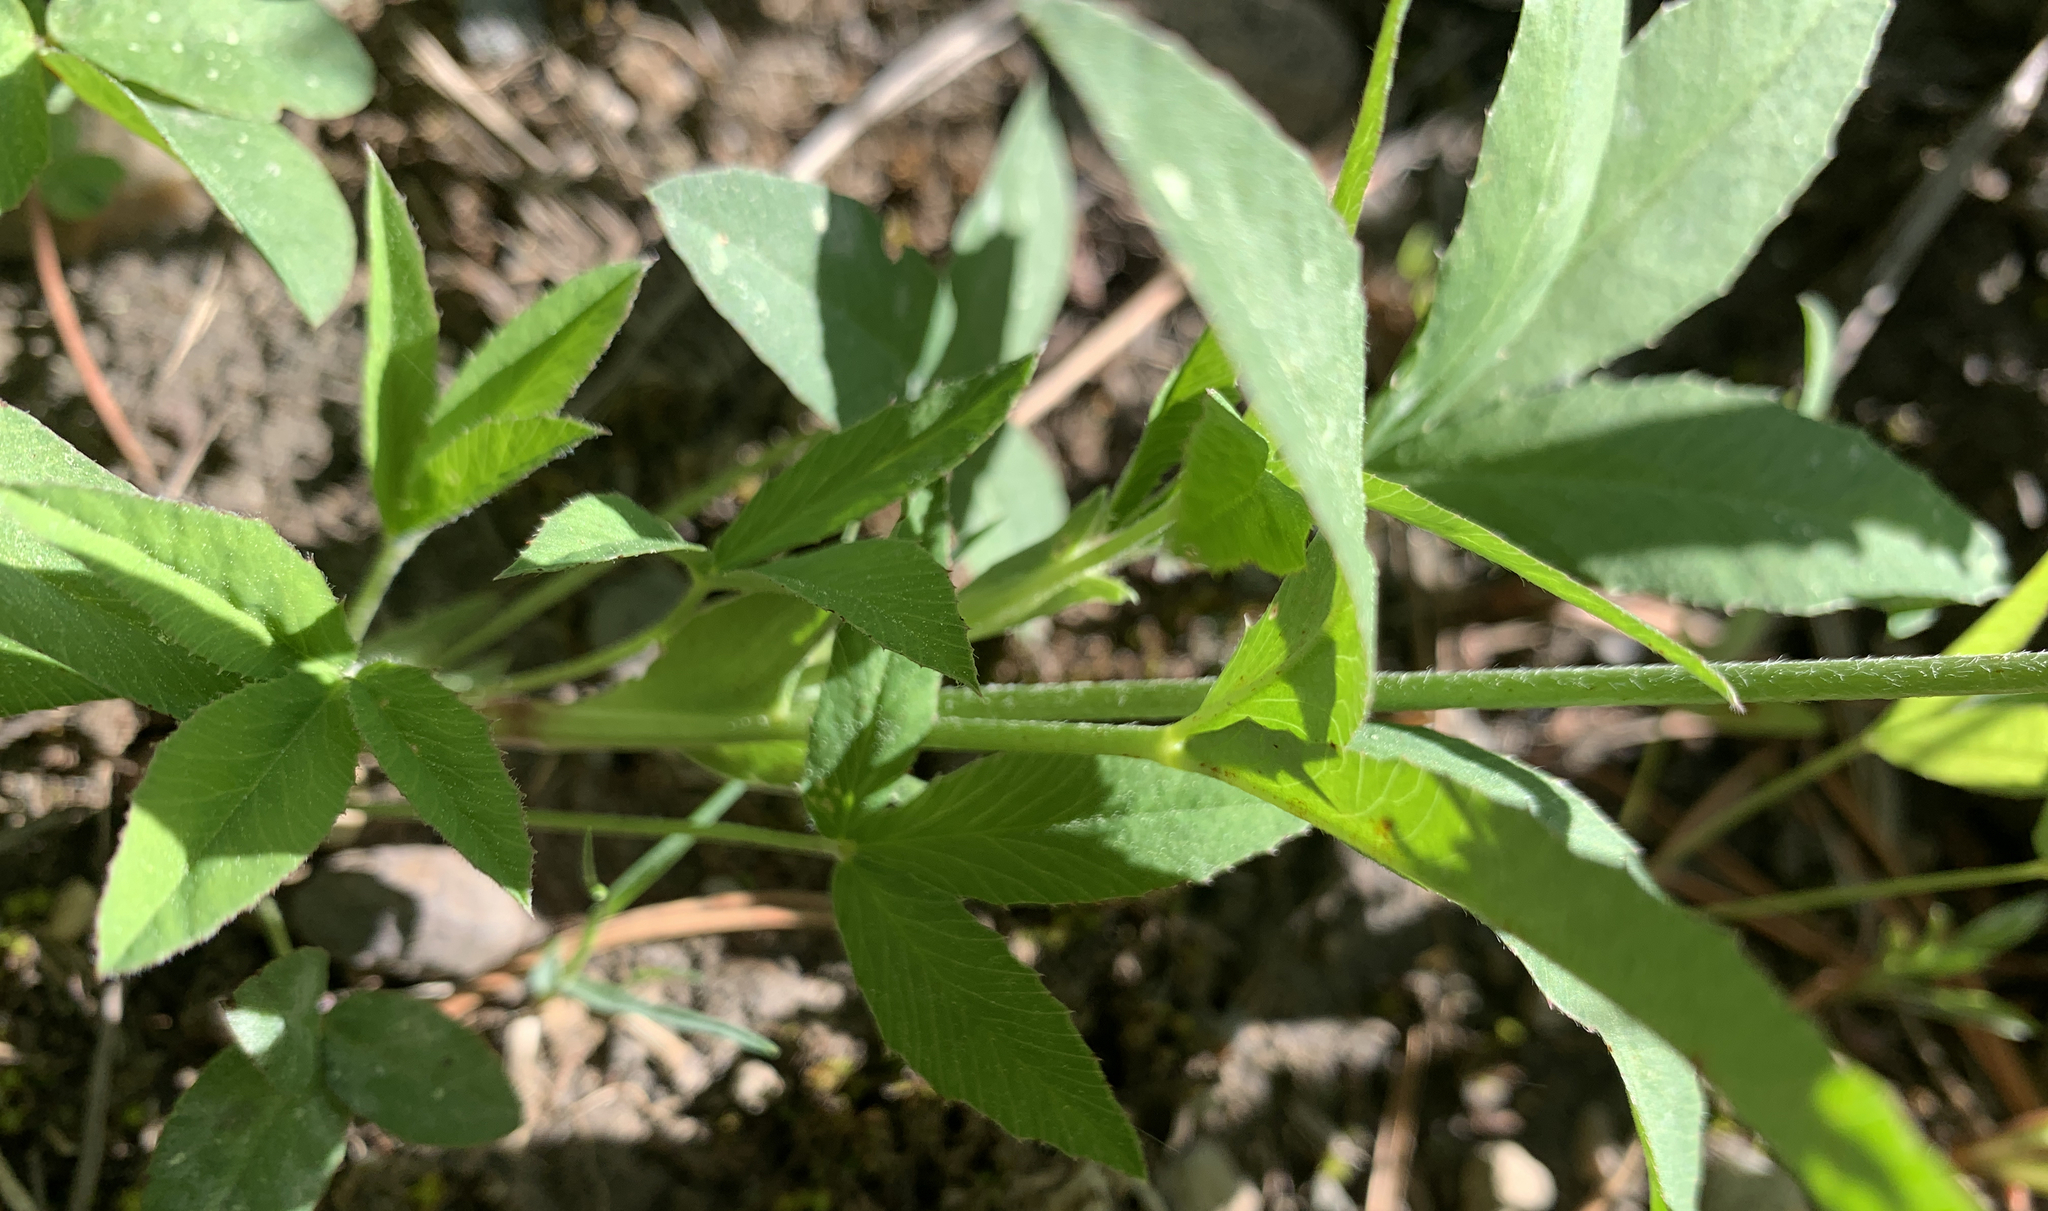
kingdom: Plantae
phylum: Tracheophyta
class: Magnoliopsida
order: Fabales
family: Fabaceae
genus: Trifolium
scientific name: Trifolium longipes
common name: Long-stalk clover
